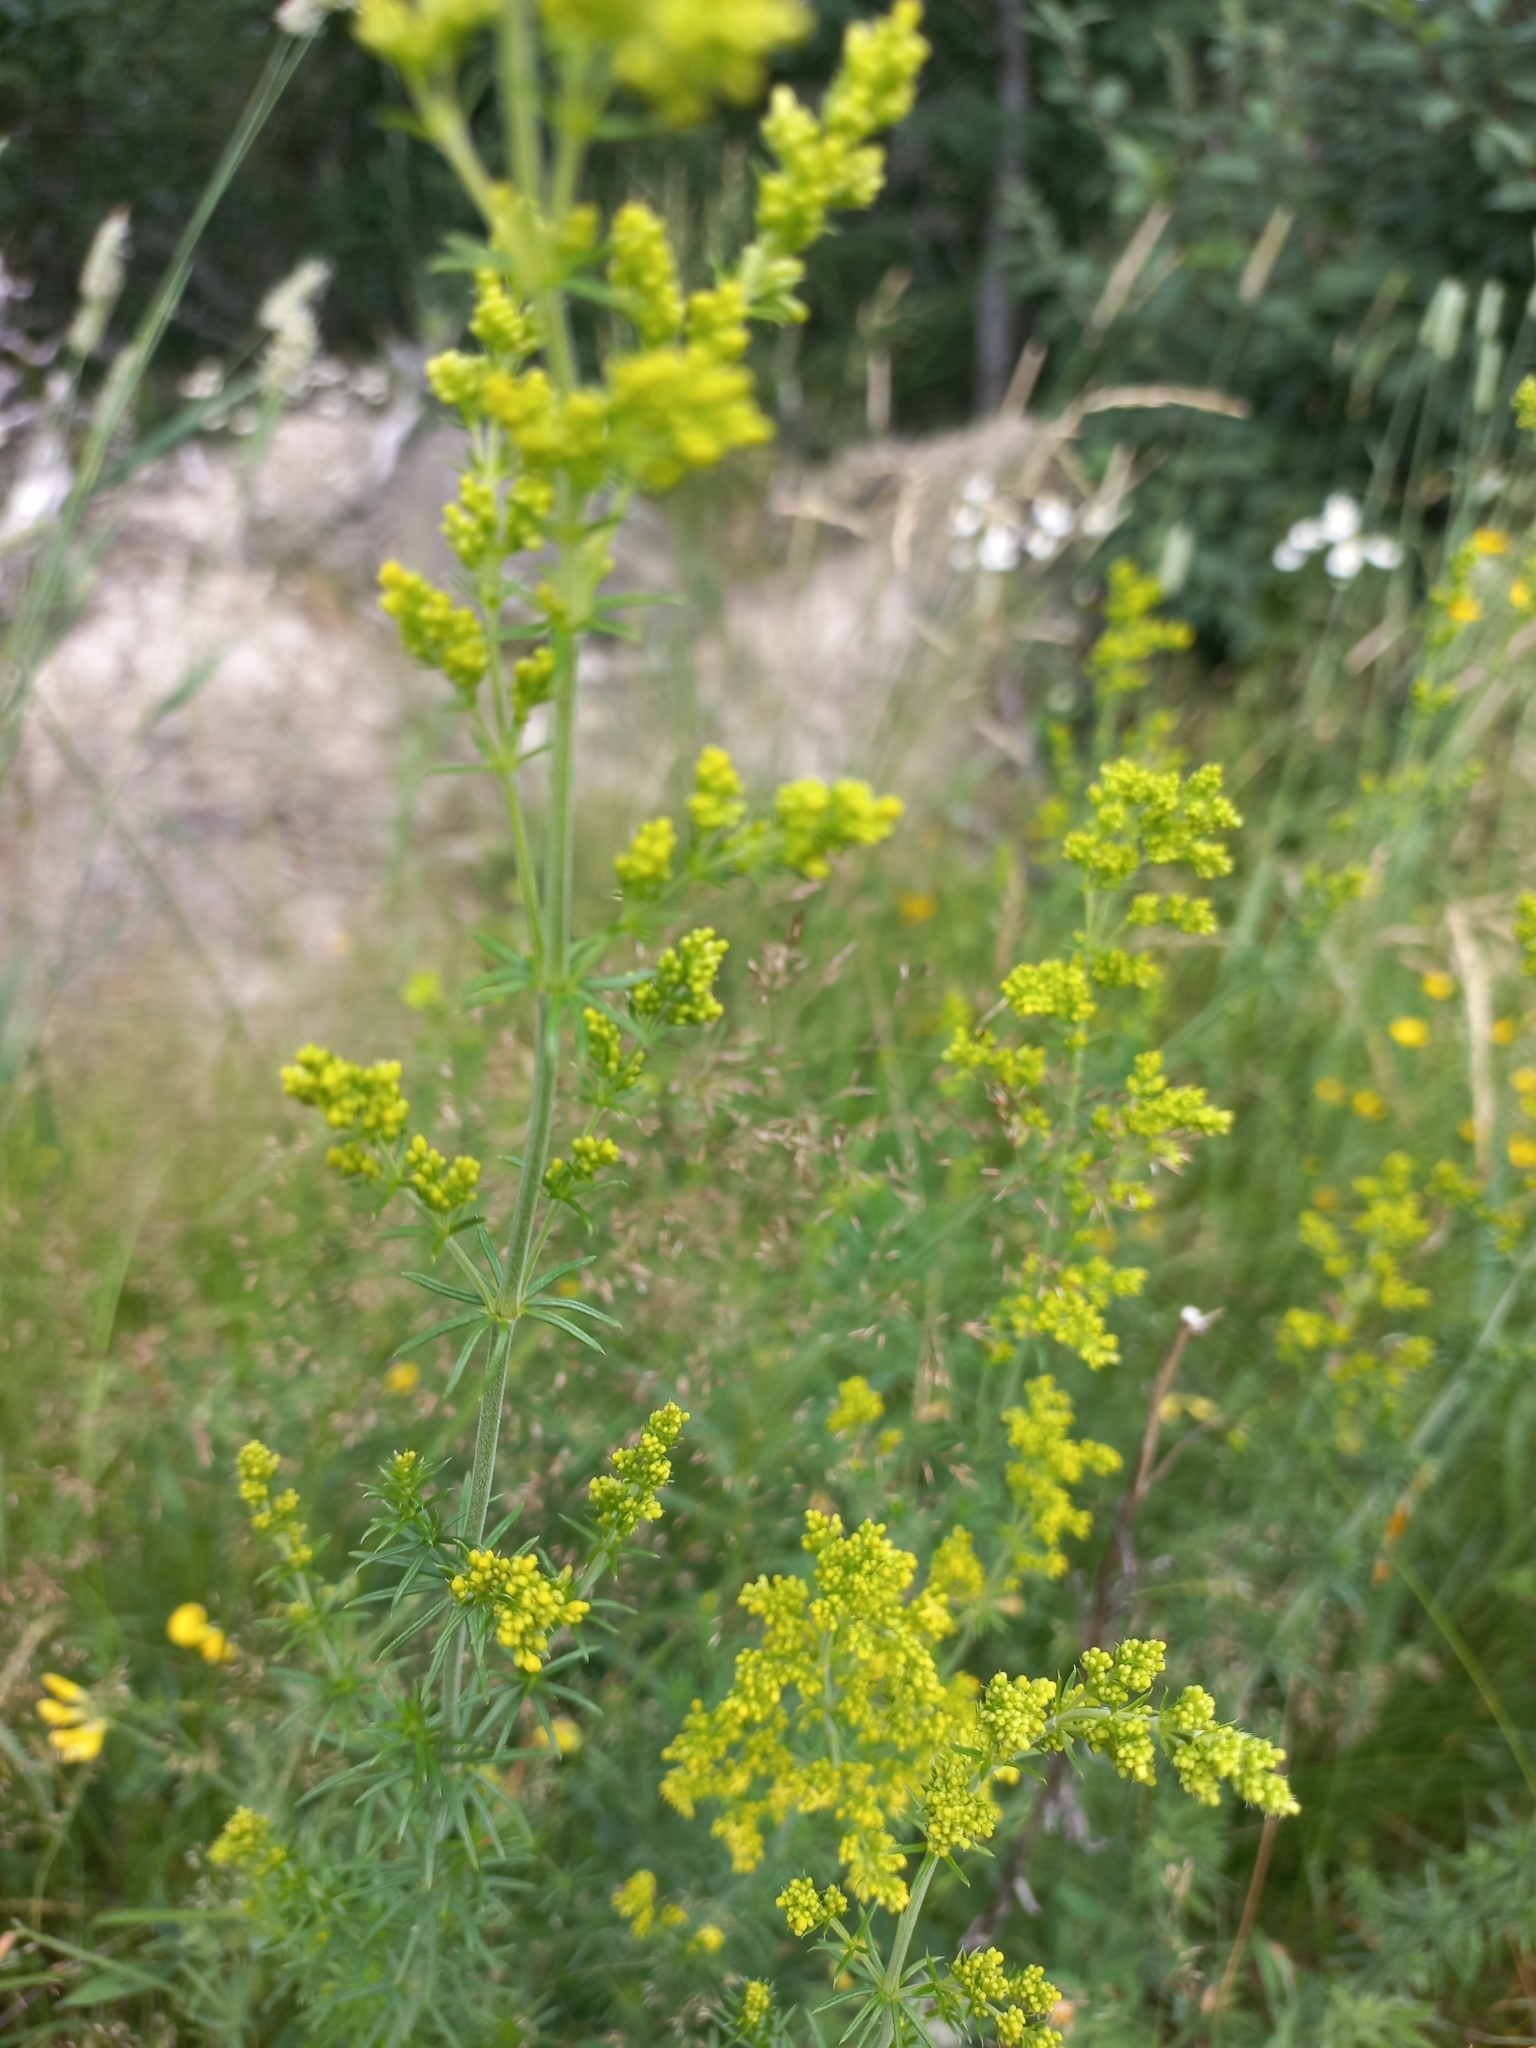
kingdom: Plantae
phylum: Tracheophyta
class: Magnoliopsida
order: Gentianales
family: Rubiaceae
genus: Galium
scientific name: Galium verum
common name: Lady's bedstraw
